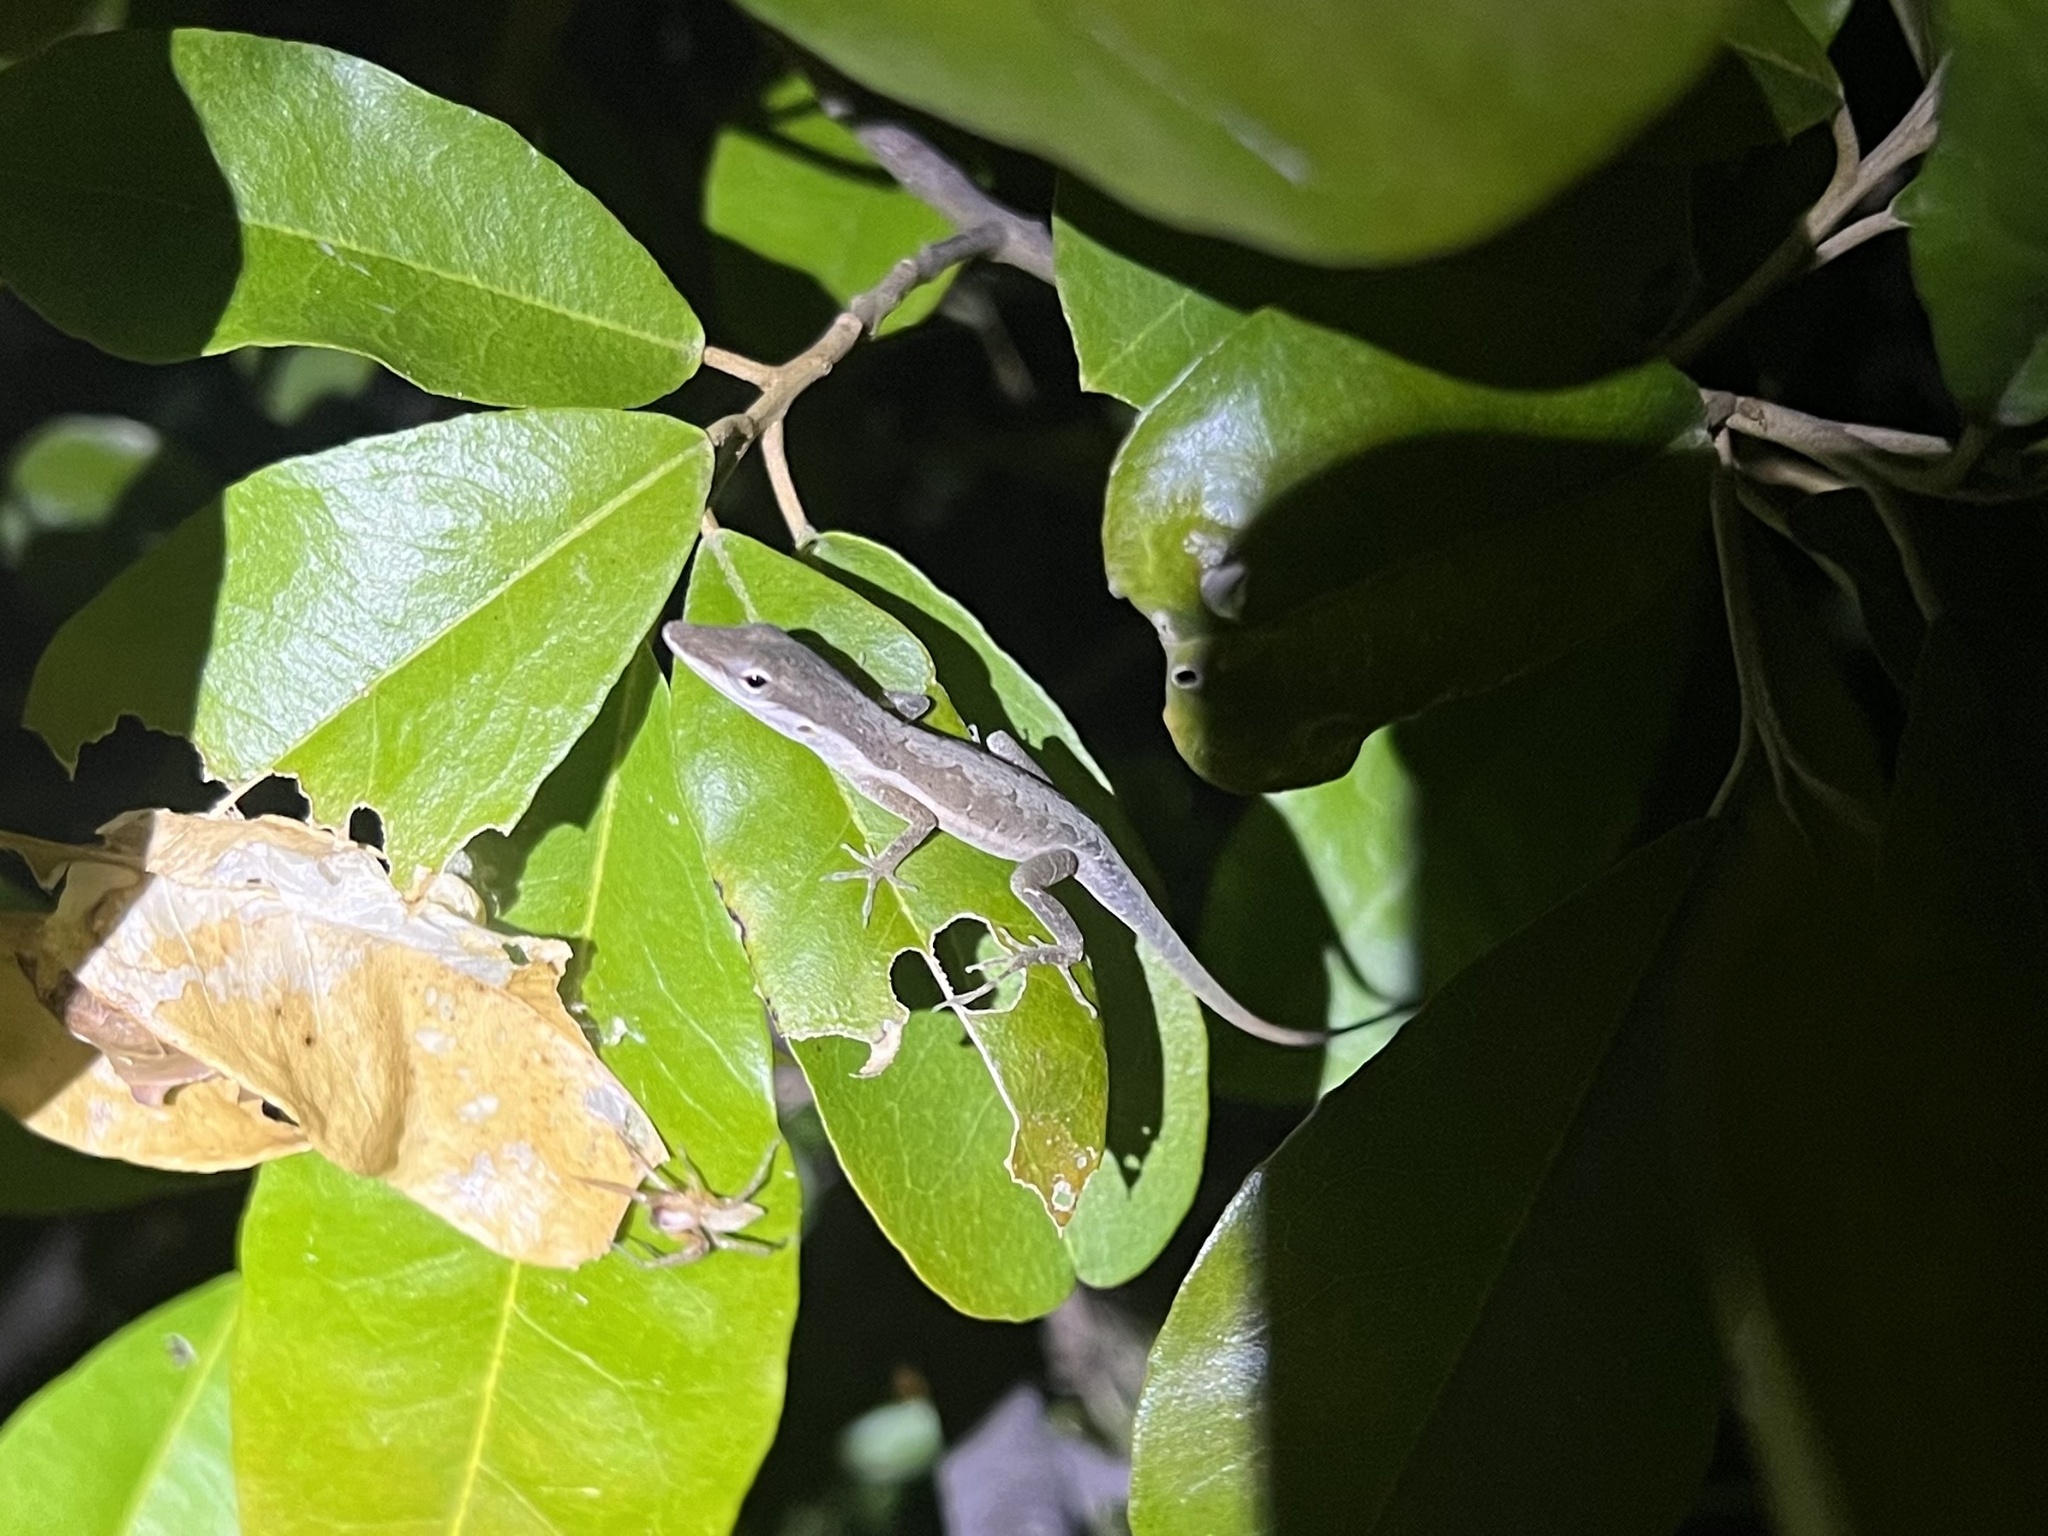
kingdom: Animalia
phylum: Chordata
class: Squamata
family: Dactyloidae
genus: Anolis
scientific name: Anolis pulchellus
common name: Puerto rican anole
